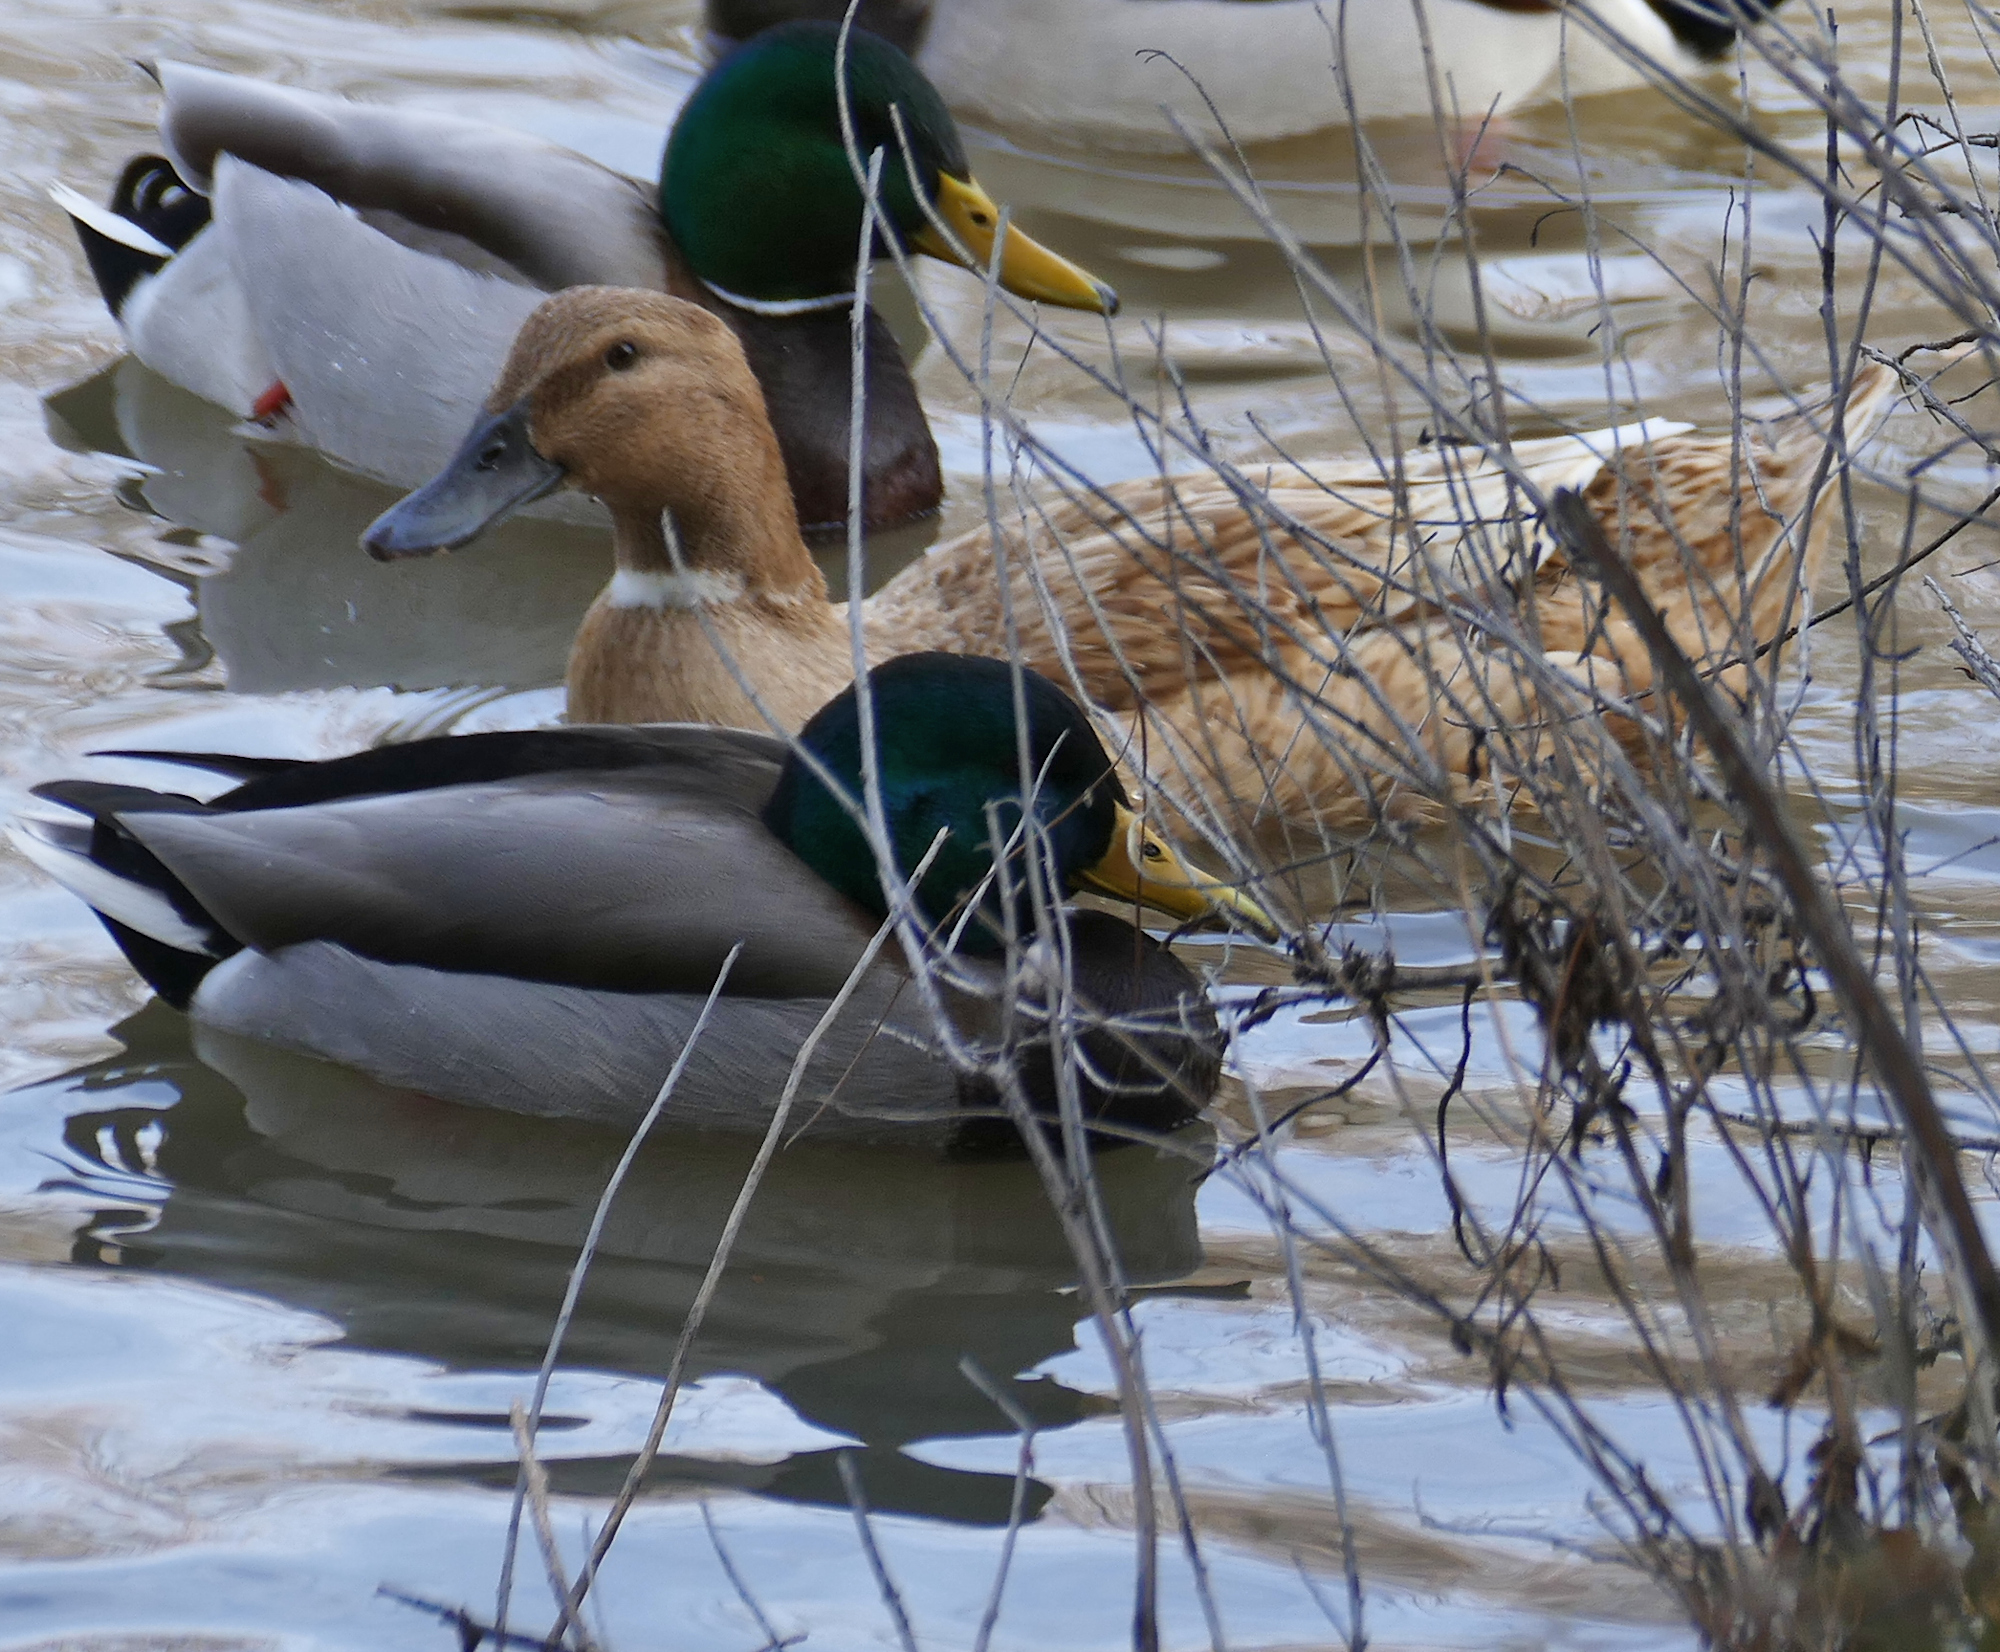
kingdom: Animalia
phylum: Chordata
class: Aves
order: Anseriformes
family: Anatidae
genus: Anas
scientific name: Anas platyrhynchos
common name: Mallard
